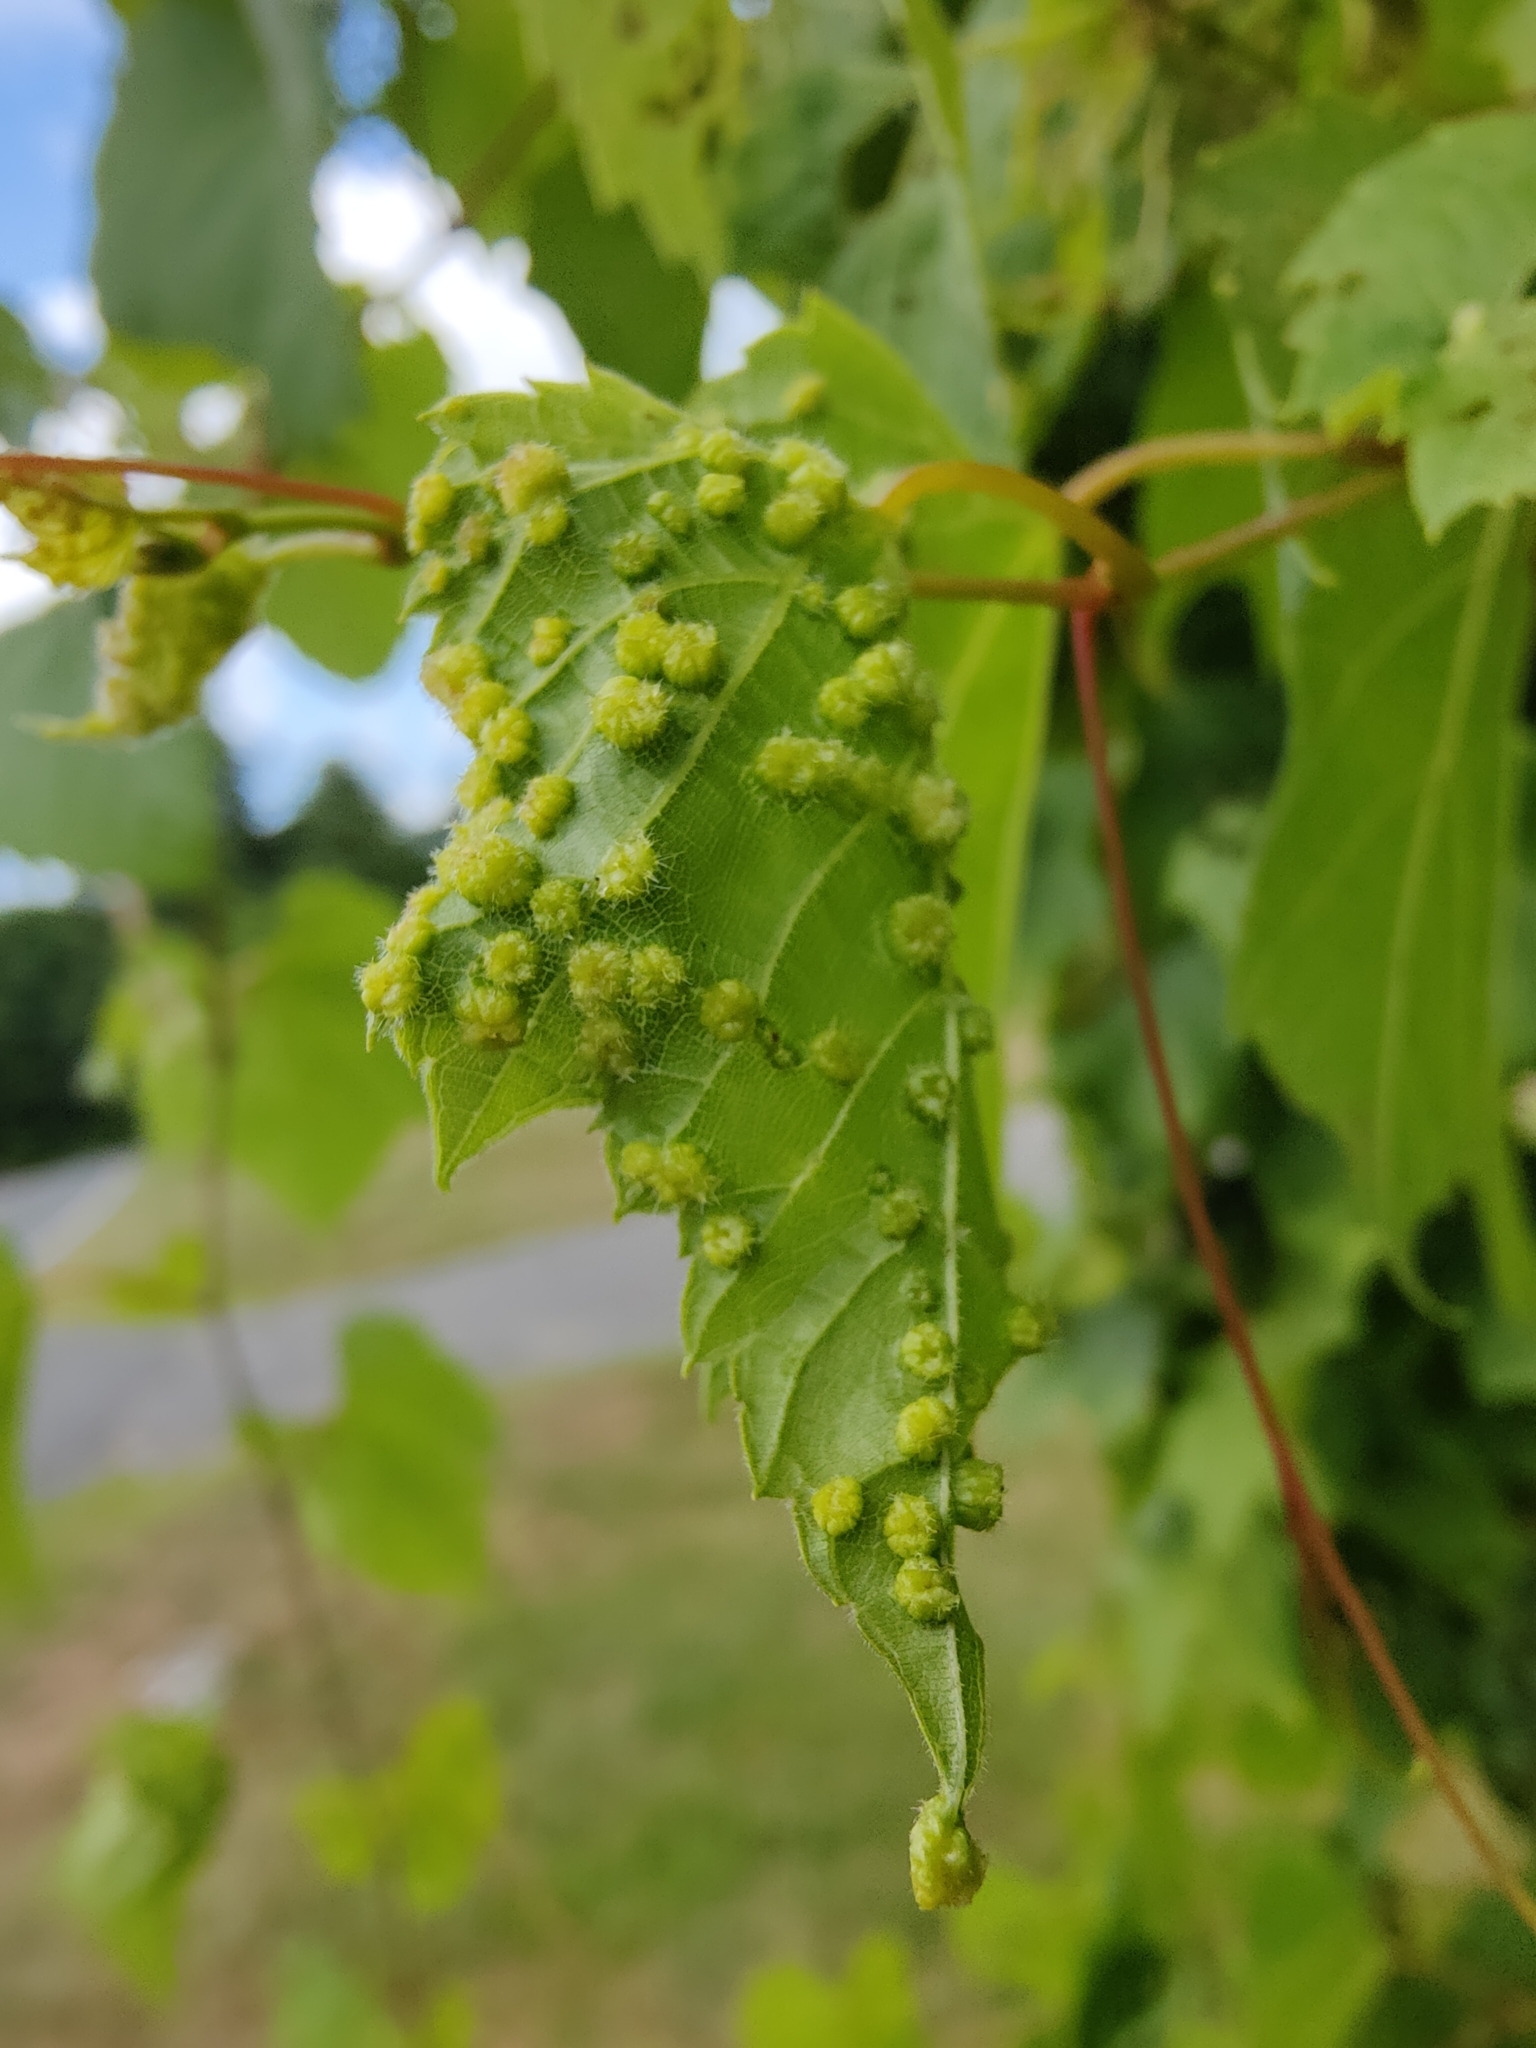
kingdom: Animalia
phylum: Arthropoda
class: Insecta
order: Hemiptera
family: Phylloxeridae
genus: Daktulosphaira
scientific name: Daktulosphaira vitifoliae
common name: Grape phylloxera
